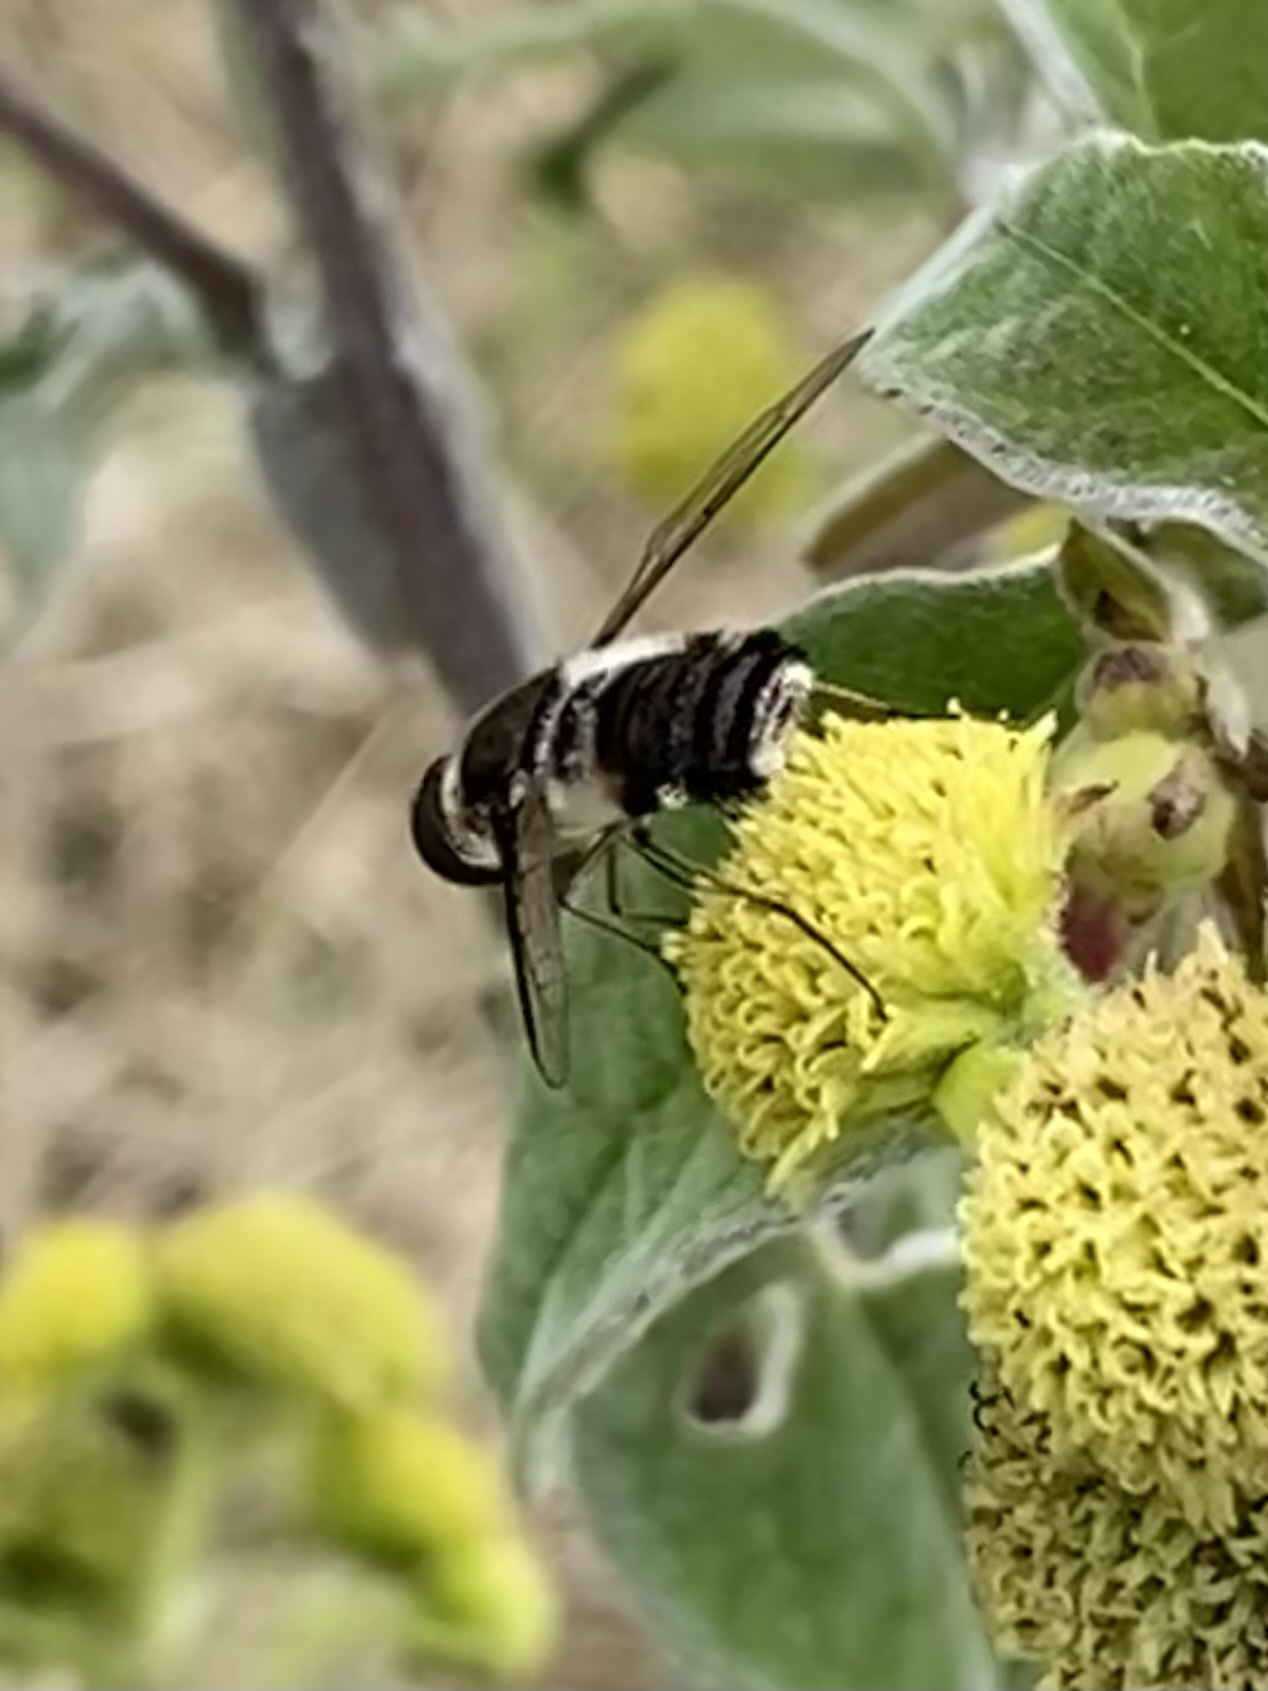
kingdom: Animalia
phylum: Arthropoda
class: Insecta
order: Diptera
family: Bombyliidae
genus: Villa
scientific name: Villa
